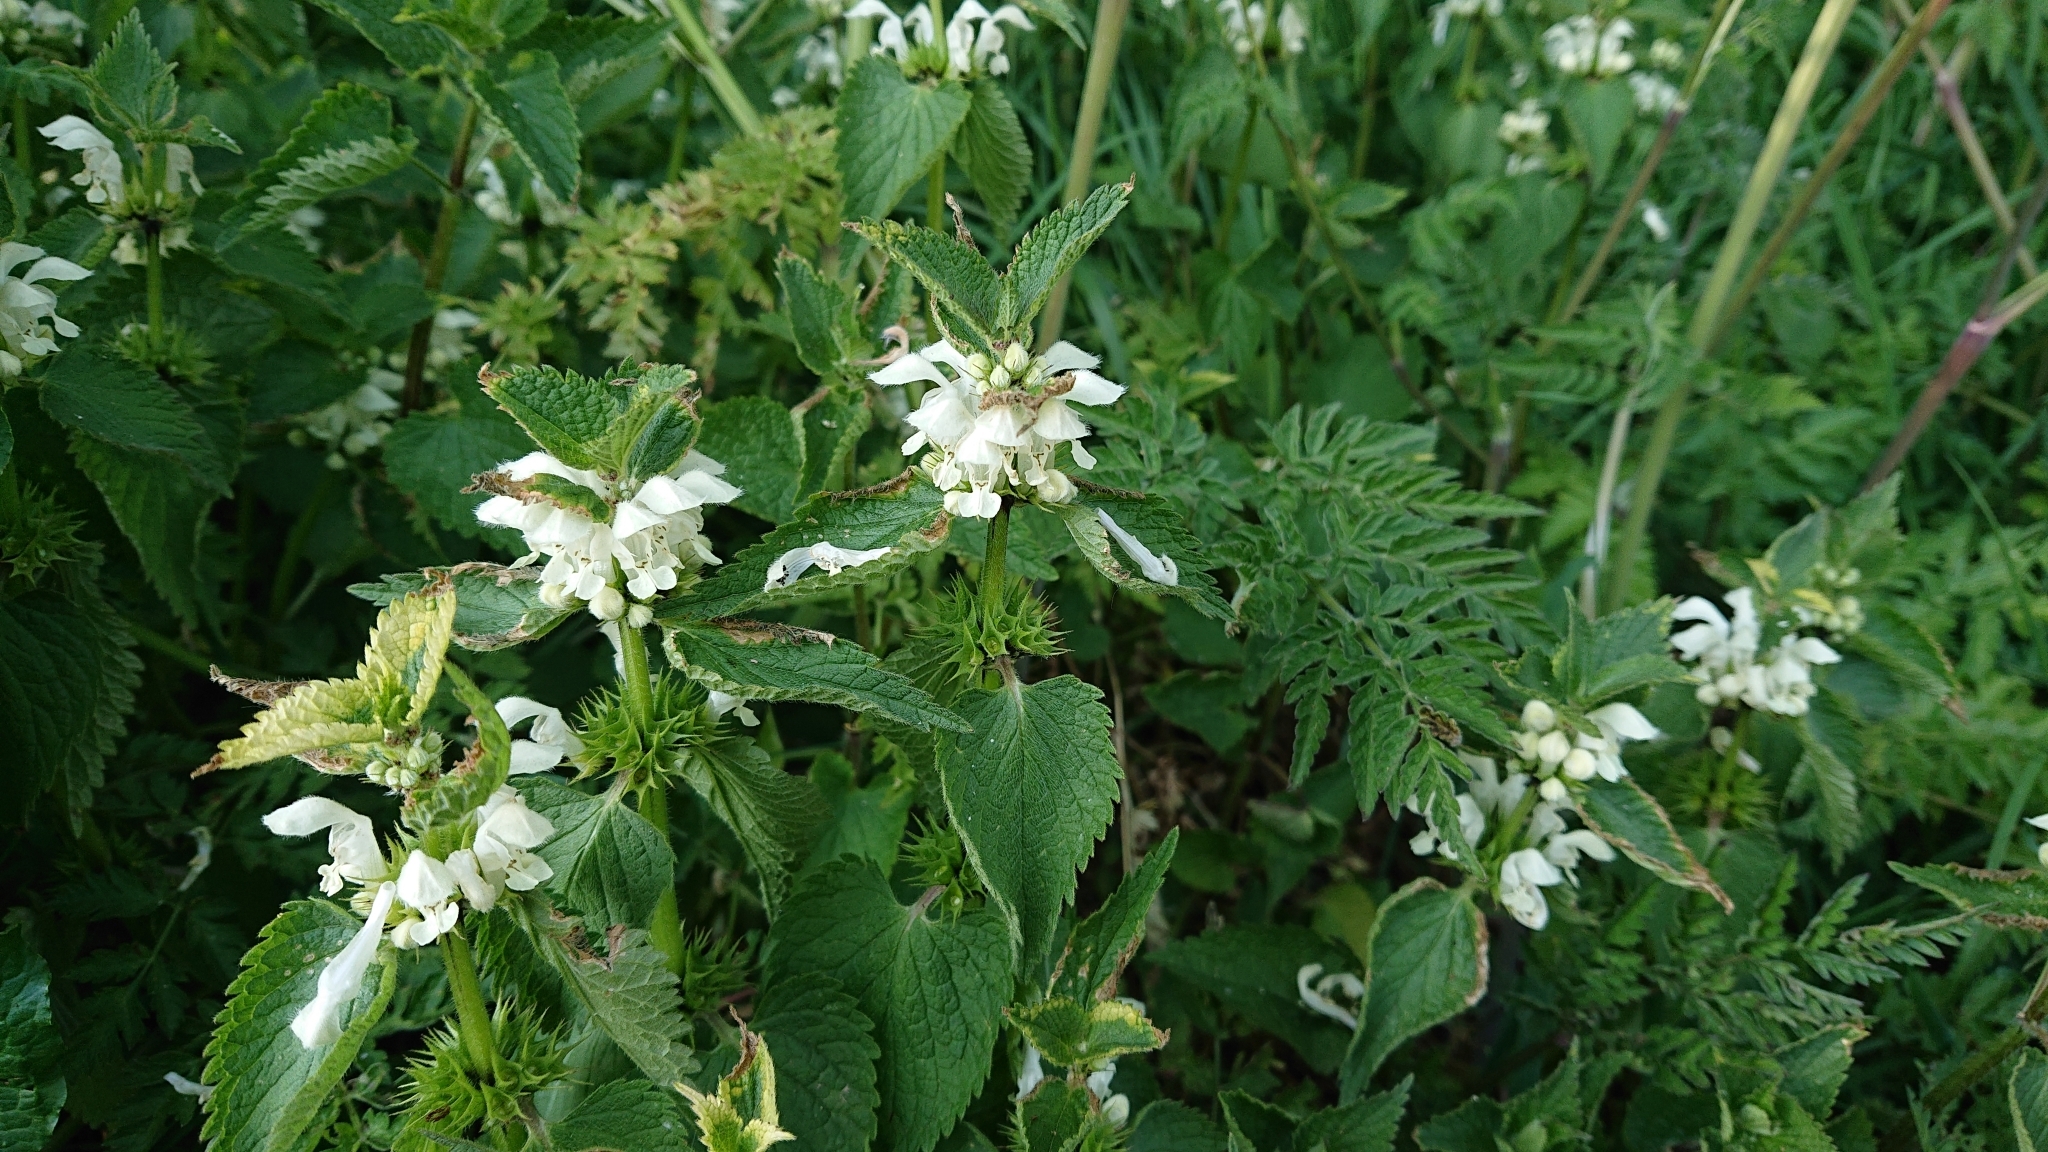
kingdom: Plantae
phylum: Tracheophyta
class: Magnoliopsida
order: Lamiales
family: Lamiaceae
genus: Lamium
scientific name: Lamium album
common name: White dead-nettle
